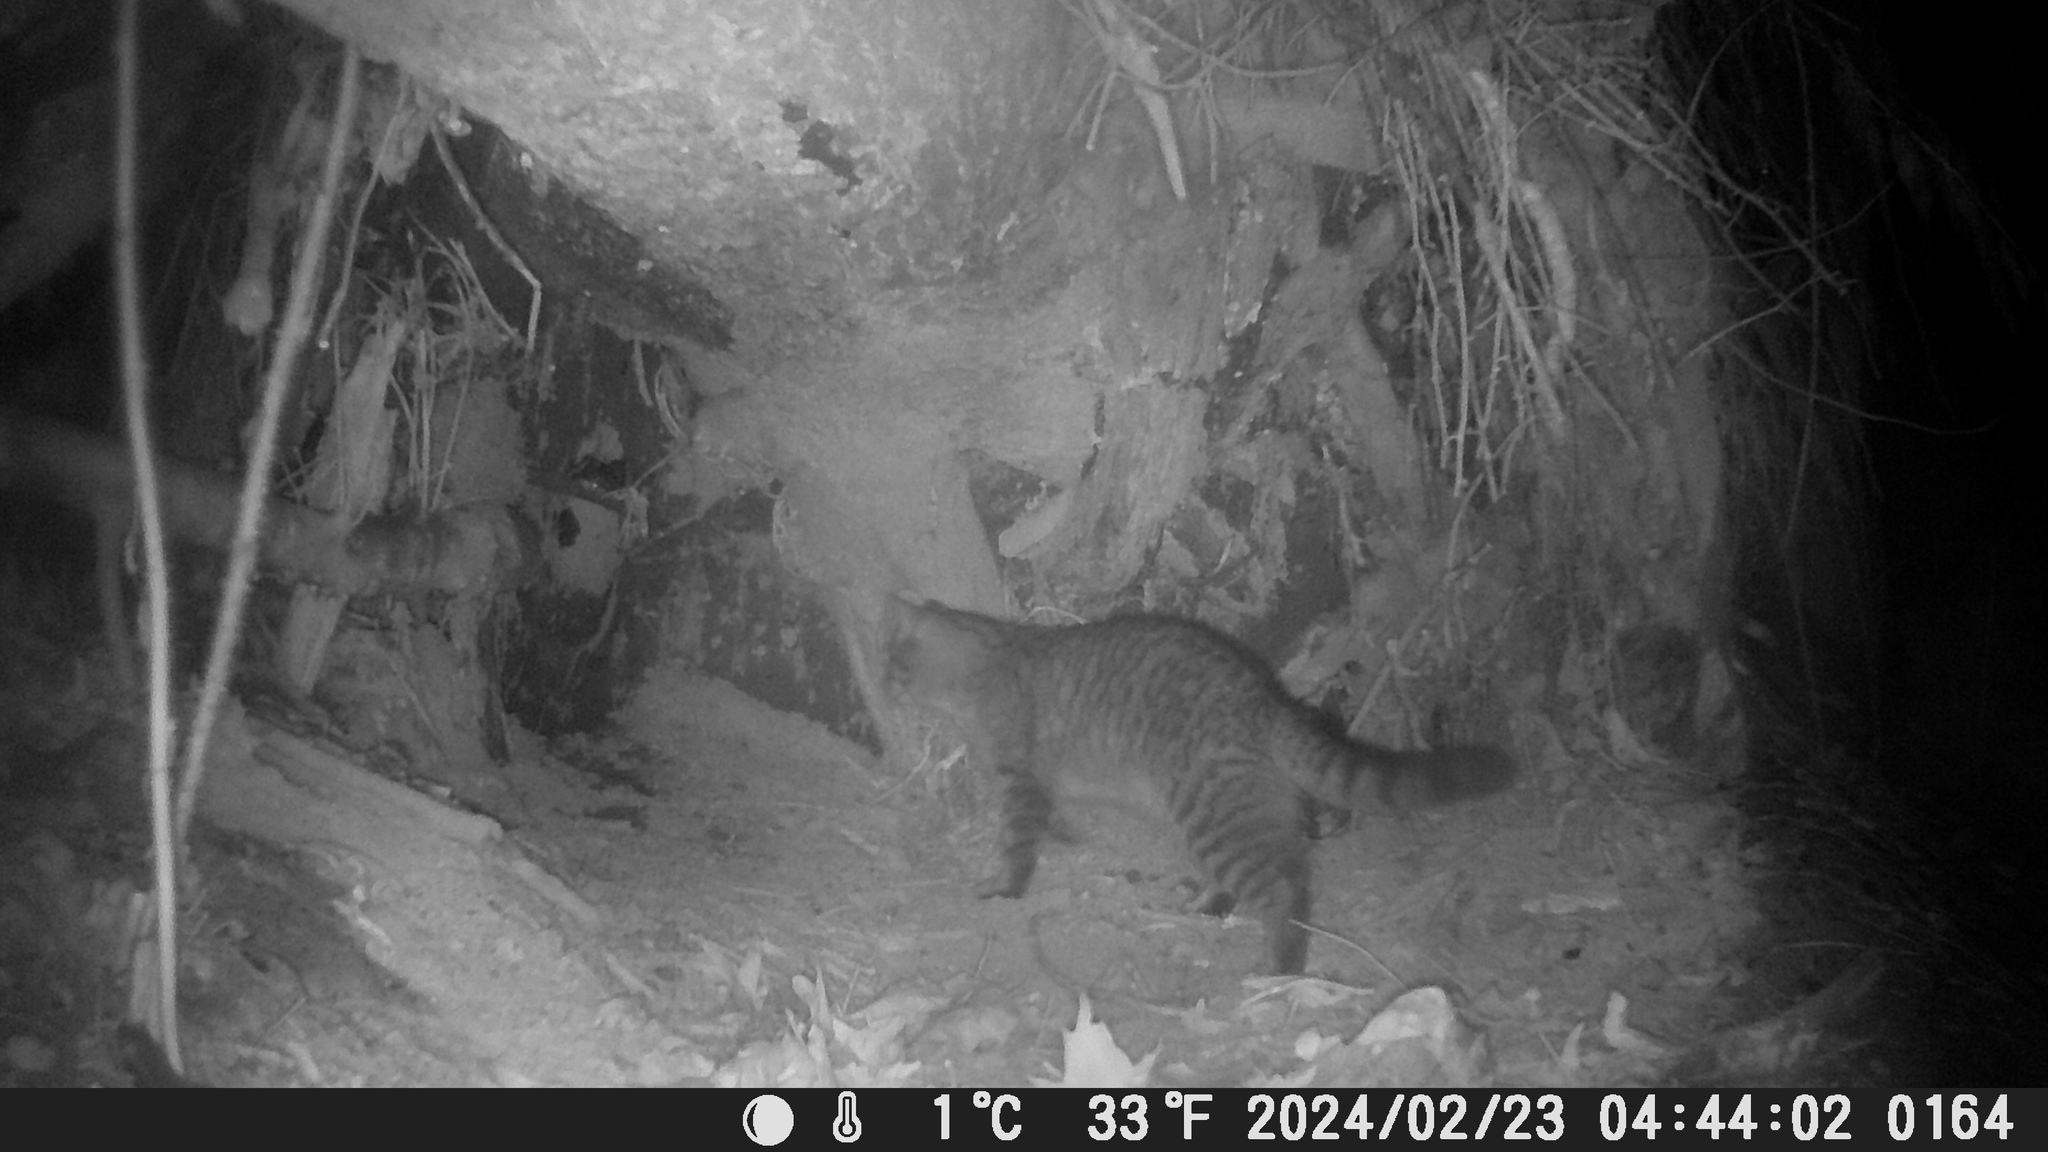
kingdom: Animalia
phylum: Chordata
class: Mammalia
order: Carnivora
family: Felidae
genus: Felis
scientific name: Felis catus
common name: Domestic cat
